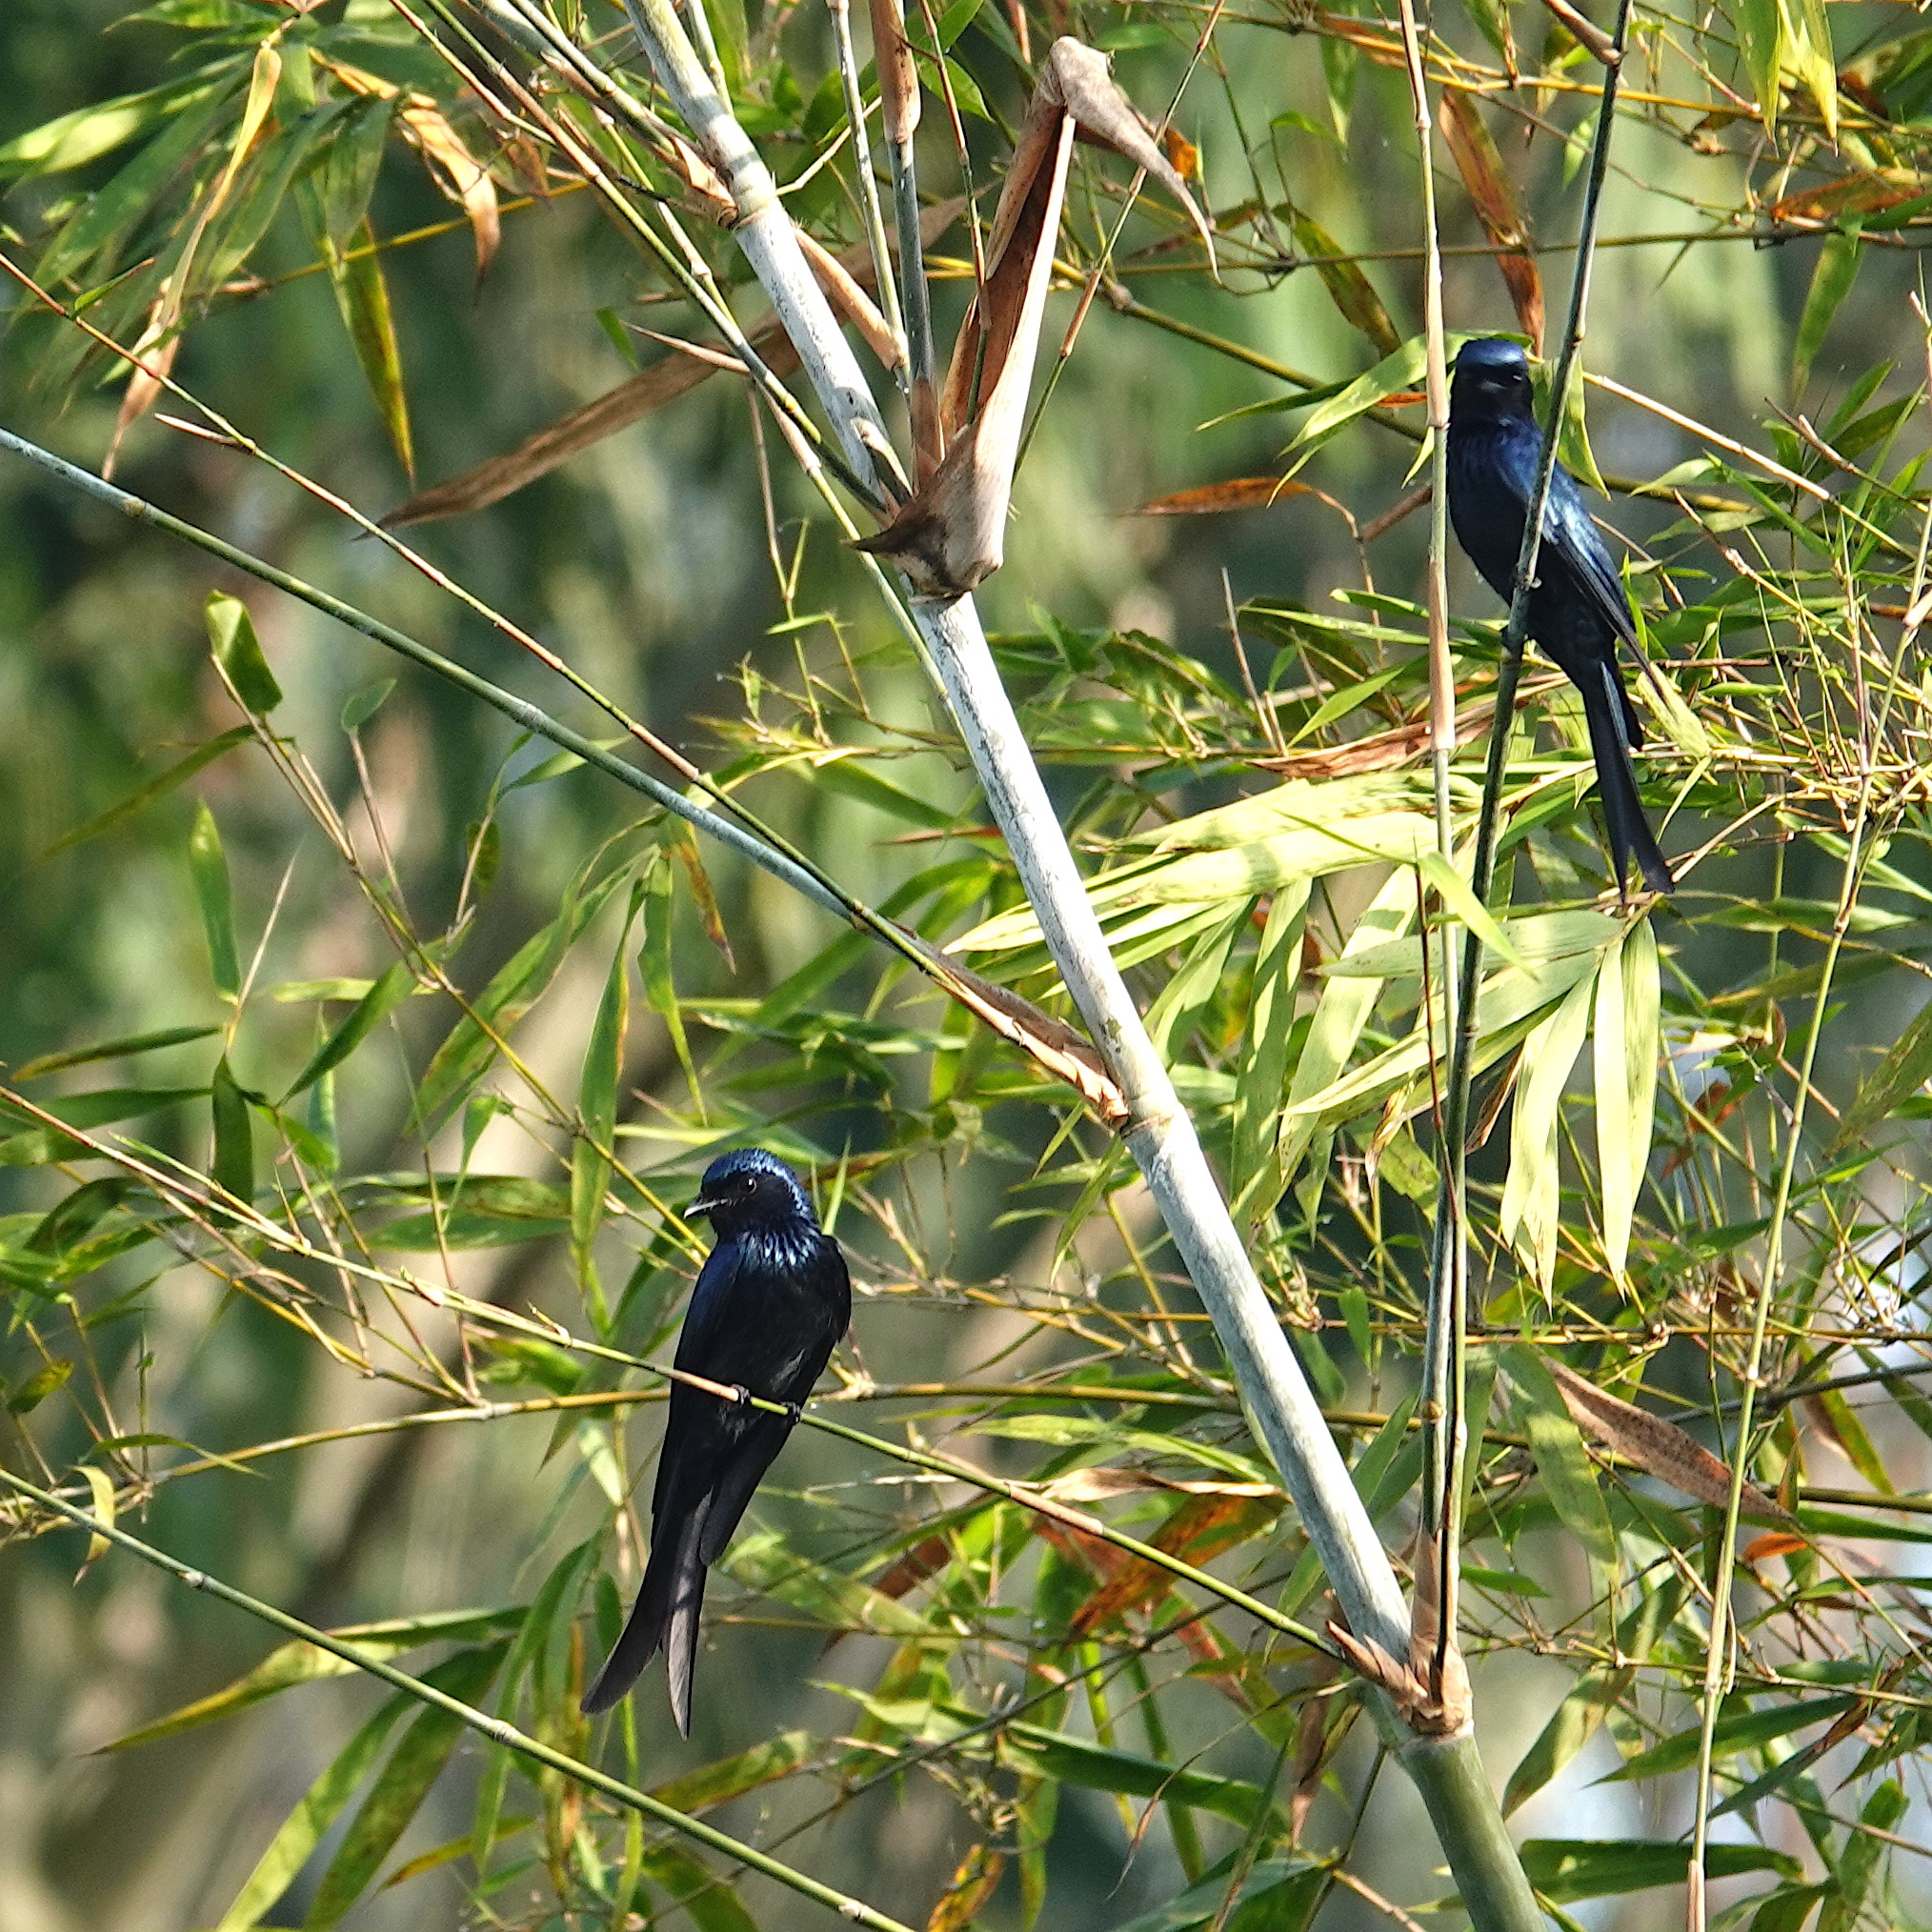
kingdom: Animalia
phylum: Chordata
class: Aves
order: Passeriformes
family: Dicruridae
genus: Dicrurus
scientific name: Dicrurus aeneus
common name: Bronzed drongo
